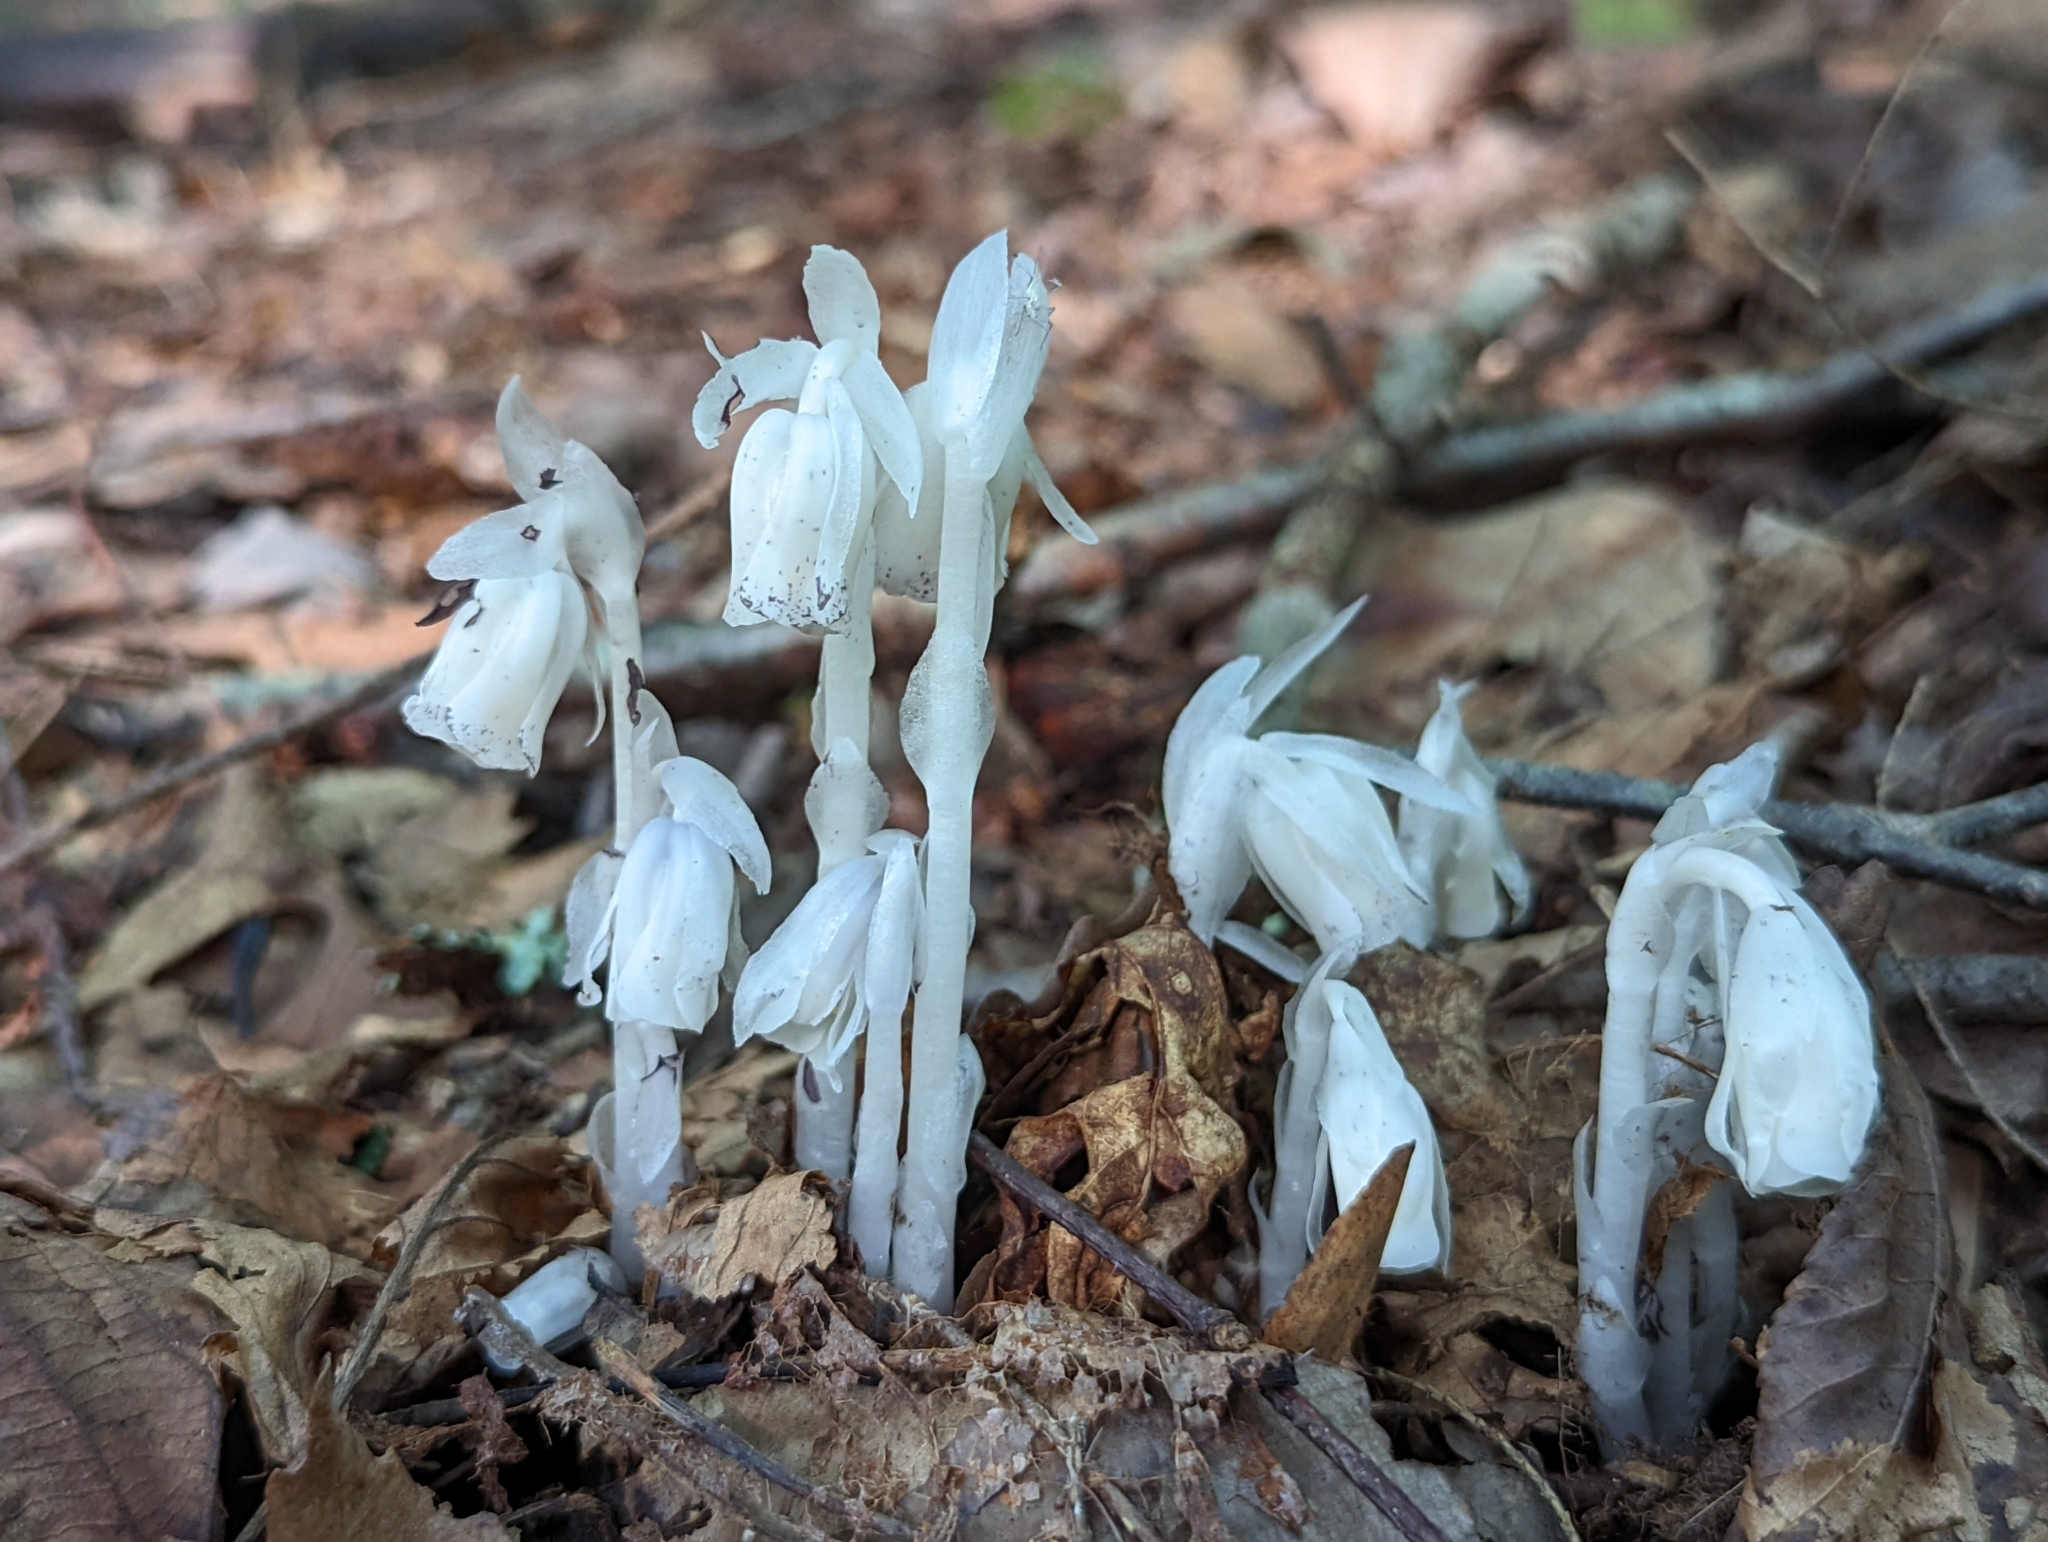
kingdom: Plantae
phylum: Tracheophyta
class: Magnoliopsida
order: Ericales
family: Ericaceae
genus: Monotropa
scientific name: Monotropa uniflora
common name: Convulsion root
